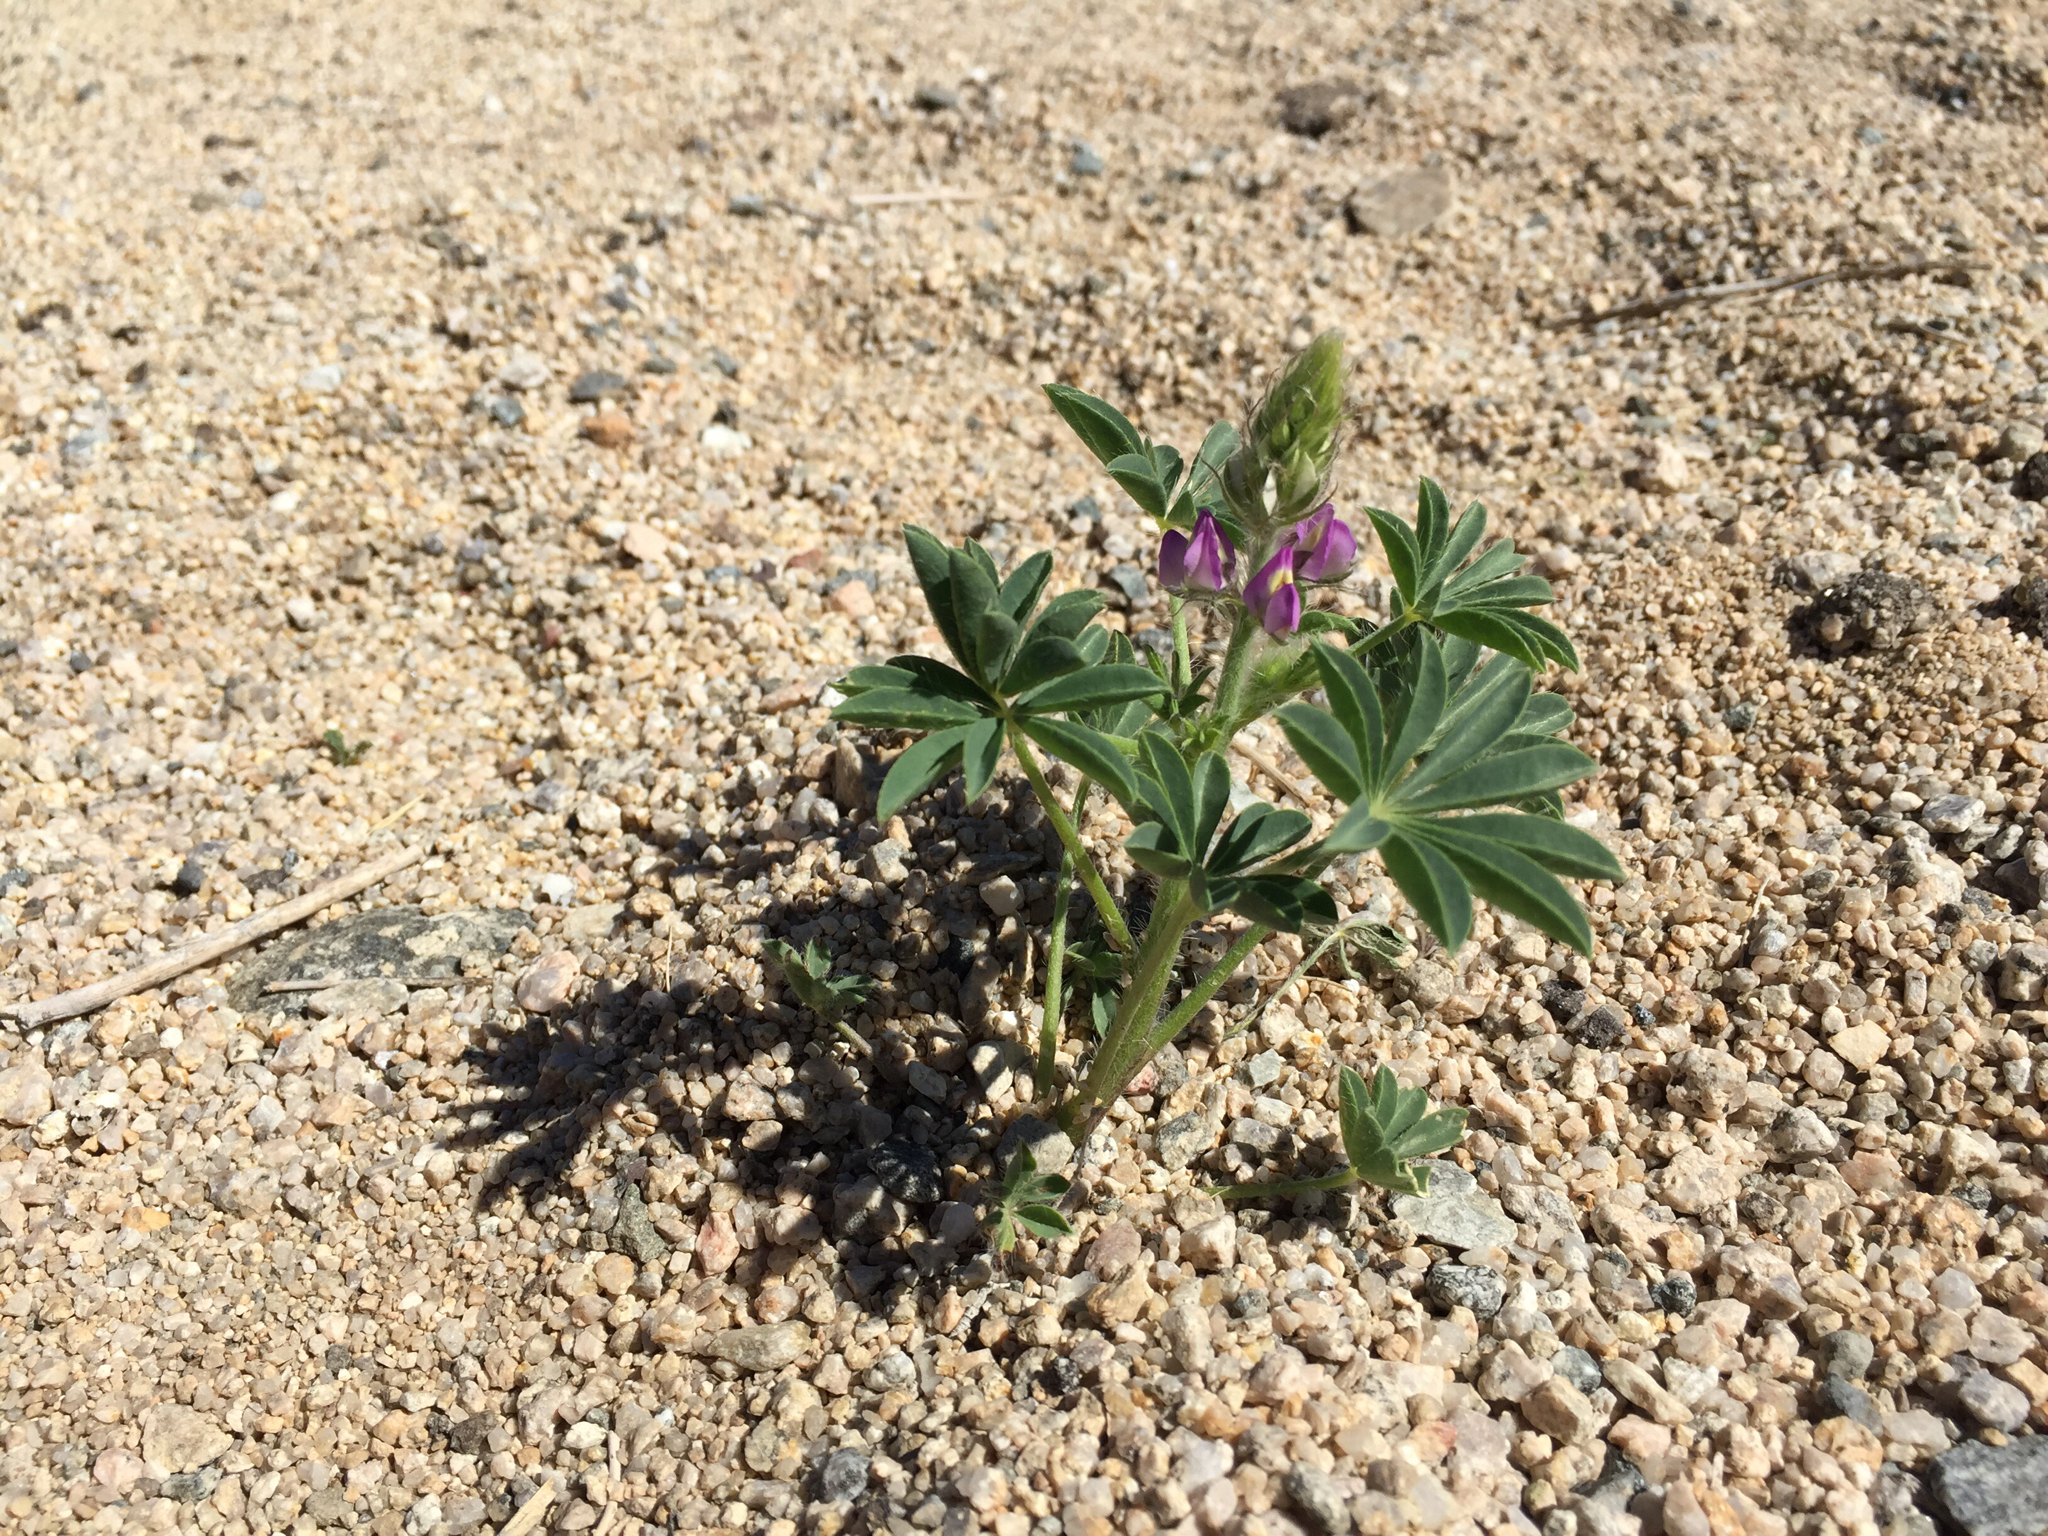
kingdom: Plantae
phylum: Tracheophyta
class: Magnoliopsida
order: Fabales
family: Fabaceae
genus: Lupinus
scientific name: Lupinus arizonicus
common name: Arizona lupine
